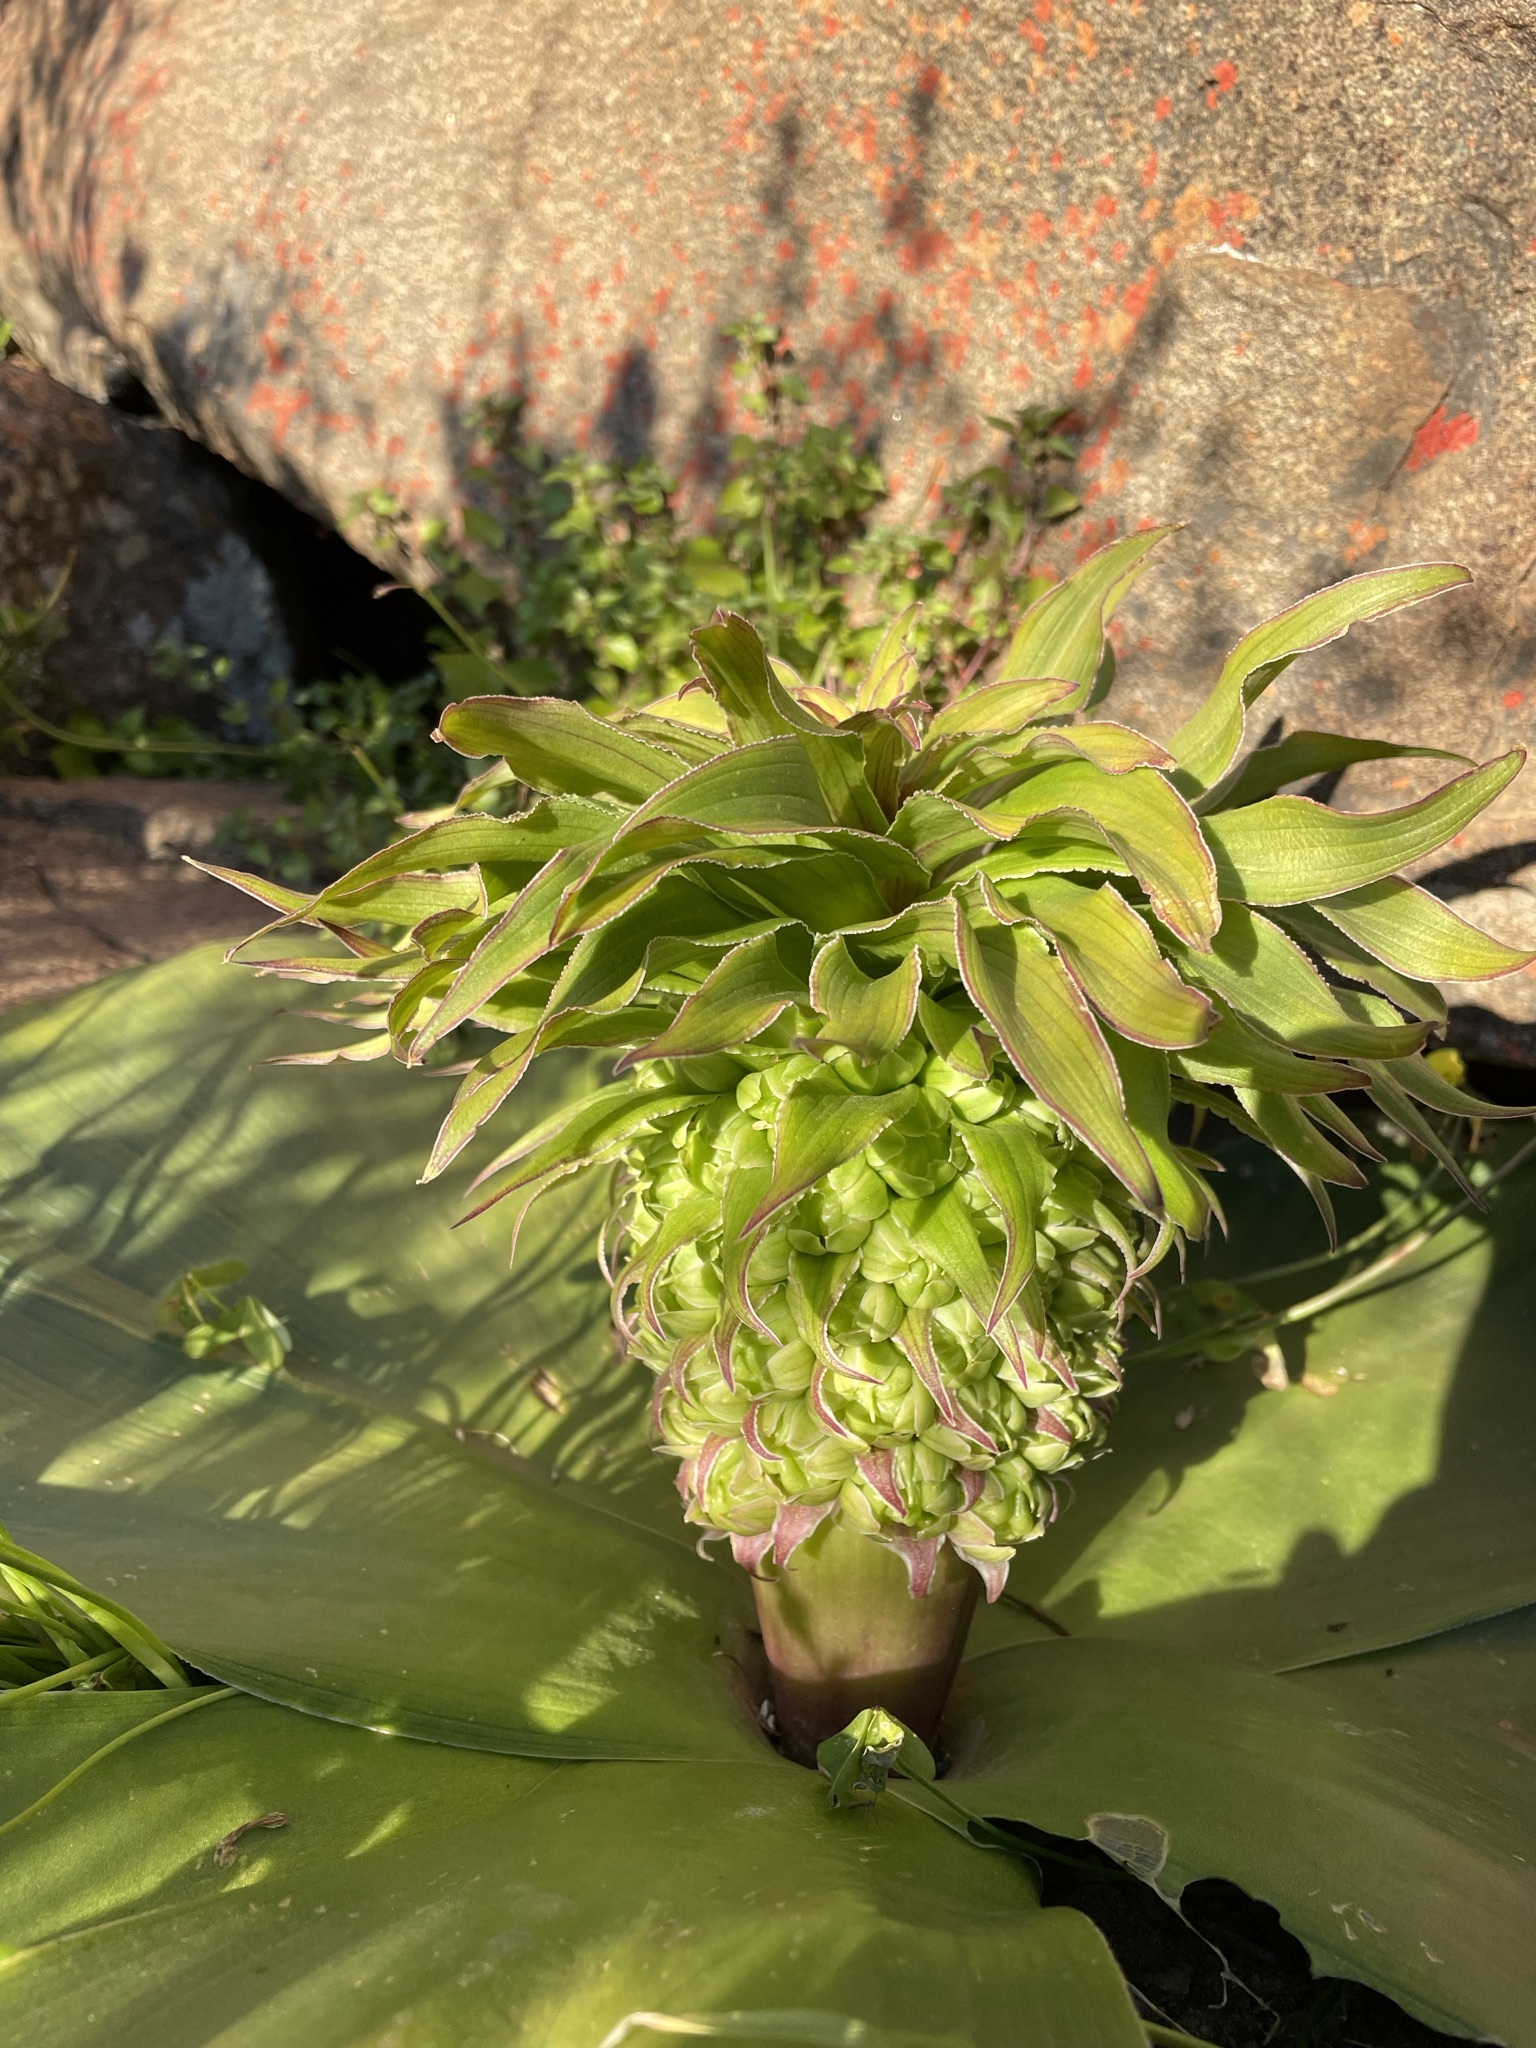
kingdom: Plantae
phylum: Tracheophyta
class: Liliopsida
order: Asparagales
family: Asparagaceae
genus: Eucomis
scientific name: Eucomis regia
